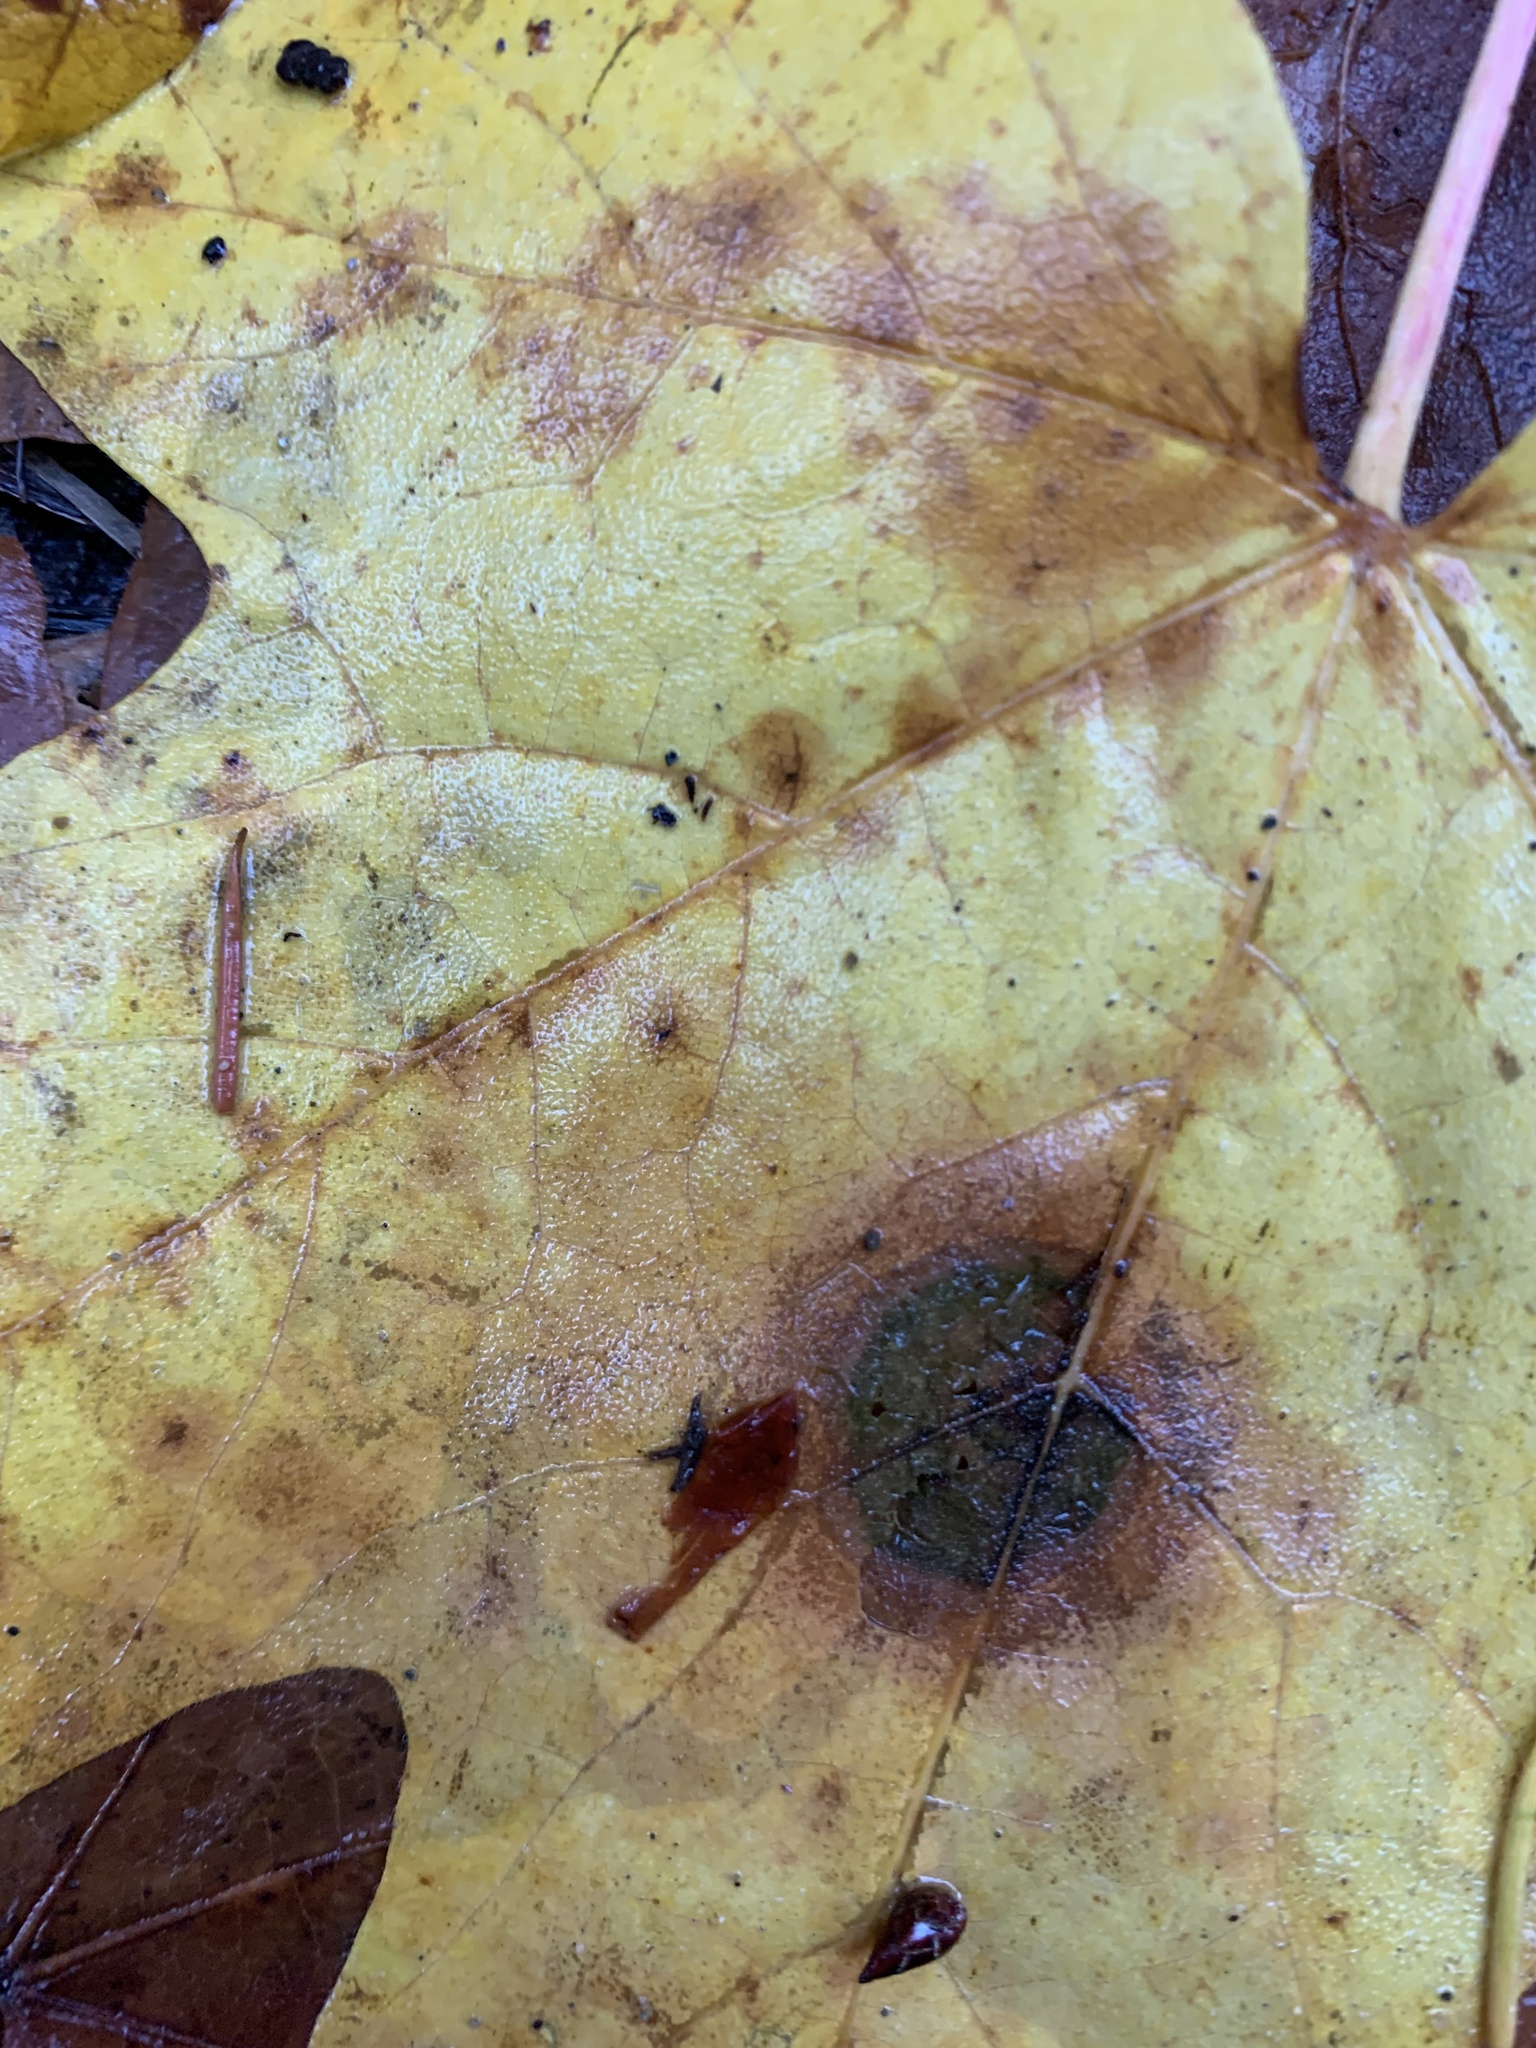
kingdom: Fungi
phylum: Ascomycota
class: Leotiomycetes
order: Rhytismatales
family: Rhytismataceae
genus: Rhytisma
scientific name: Rhytisma punctatum
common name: Speckled tar spot
